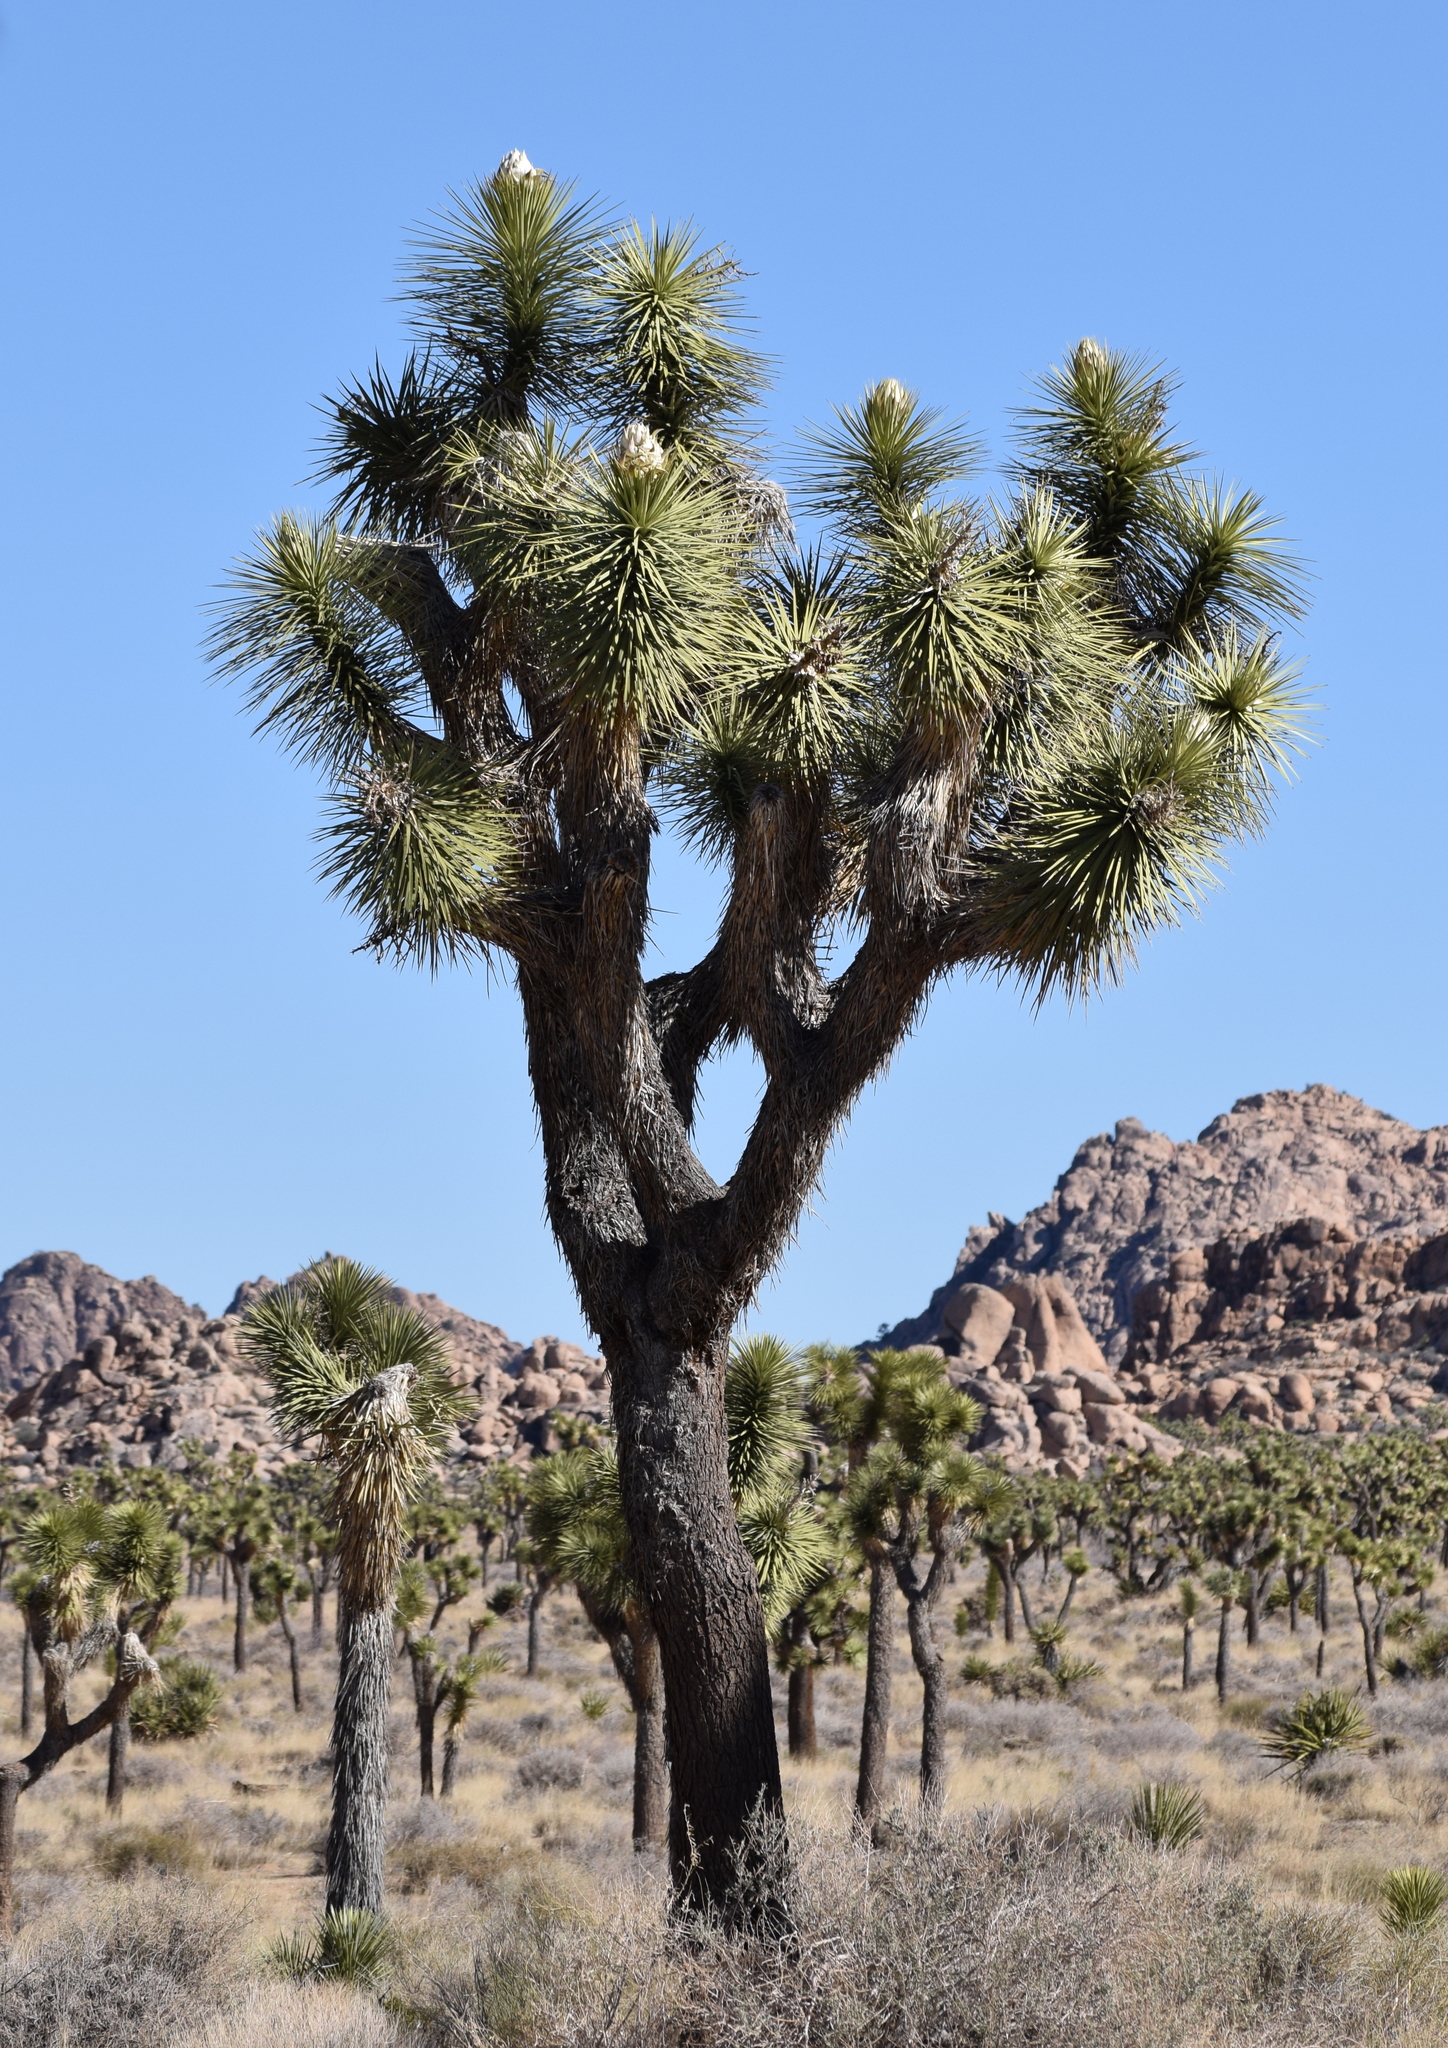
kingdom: Plantae
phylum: Tracheophyta
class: Liliopsida
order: Asparagales
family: Asparagaceae
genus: Yucca
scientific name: Yucca brevifolia
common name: Joshua tree
